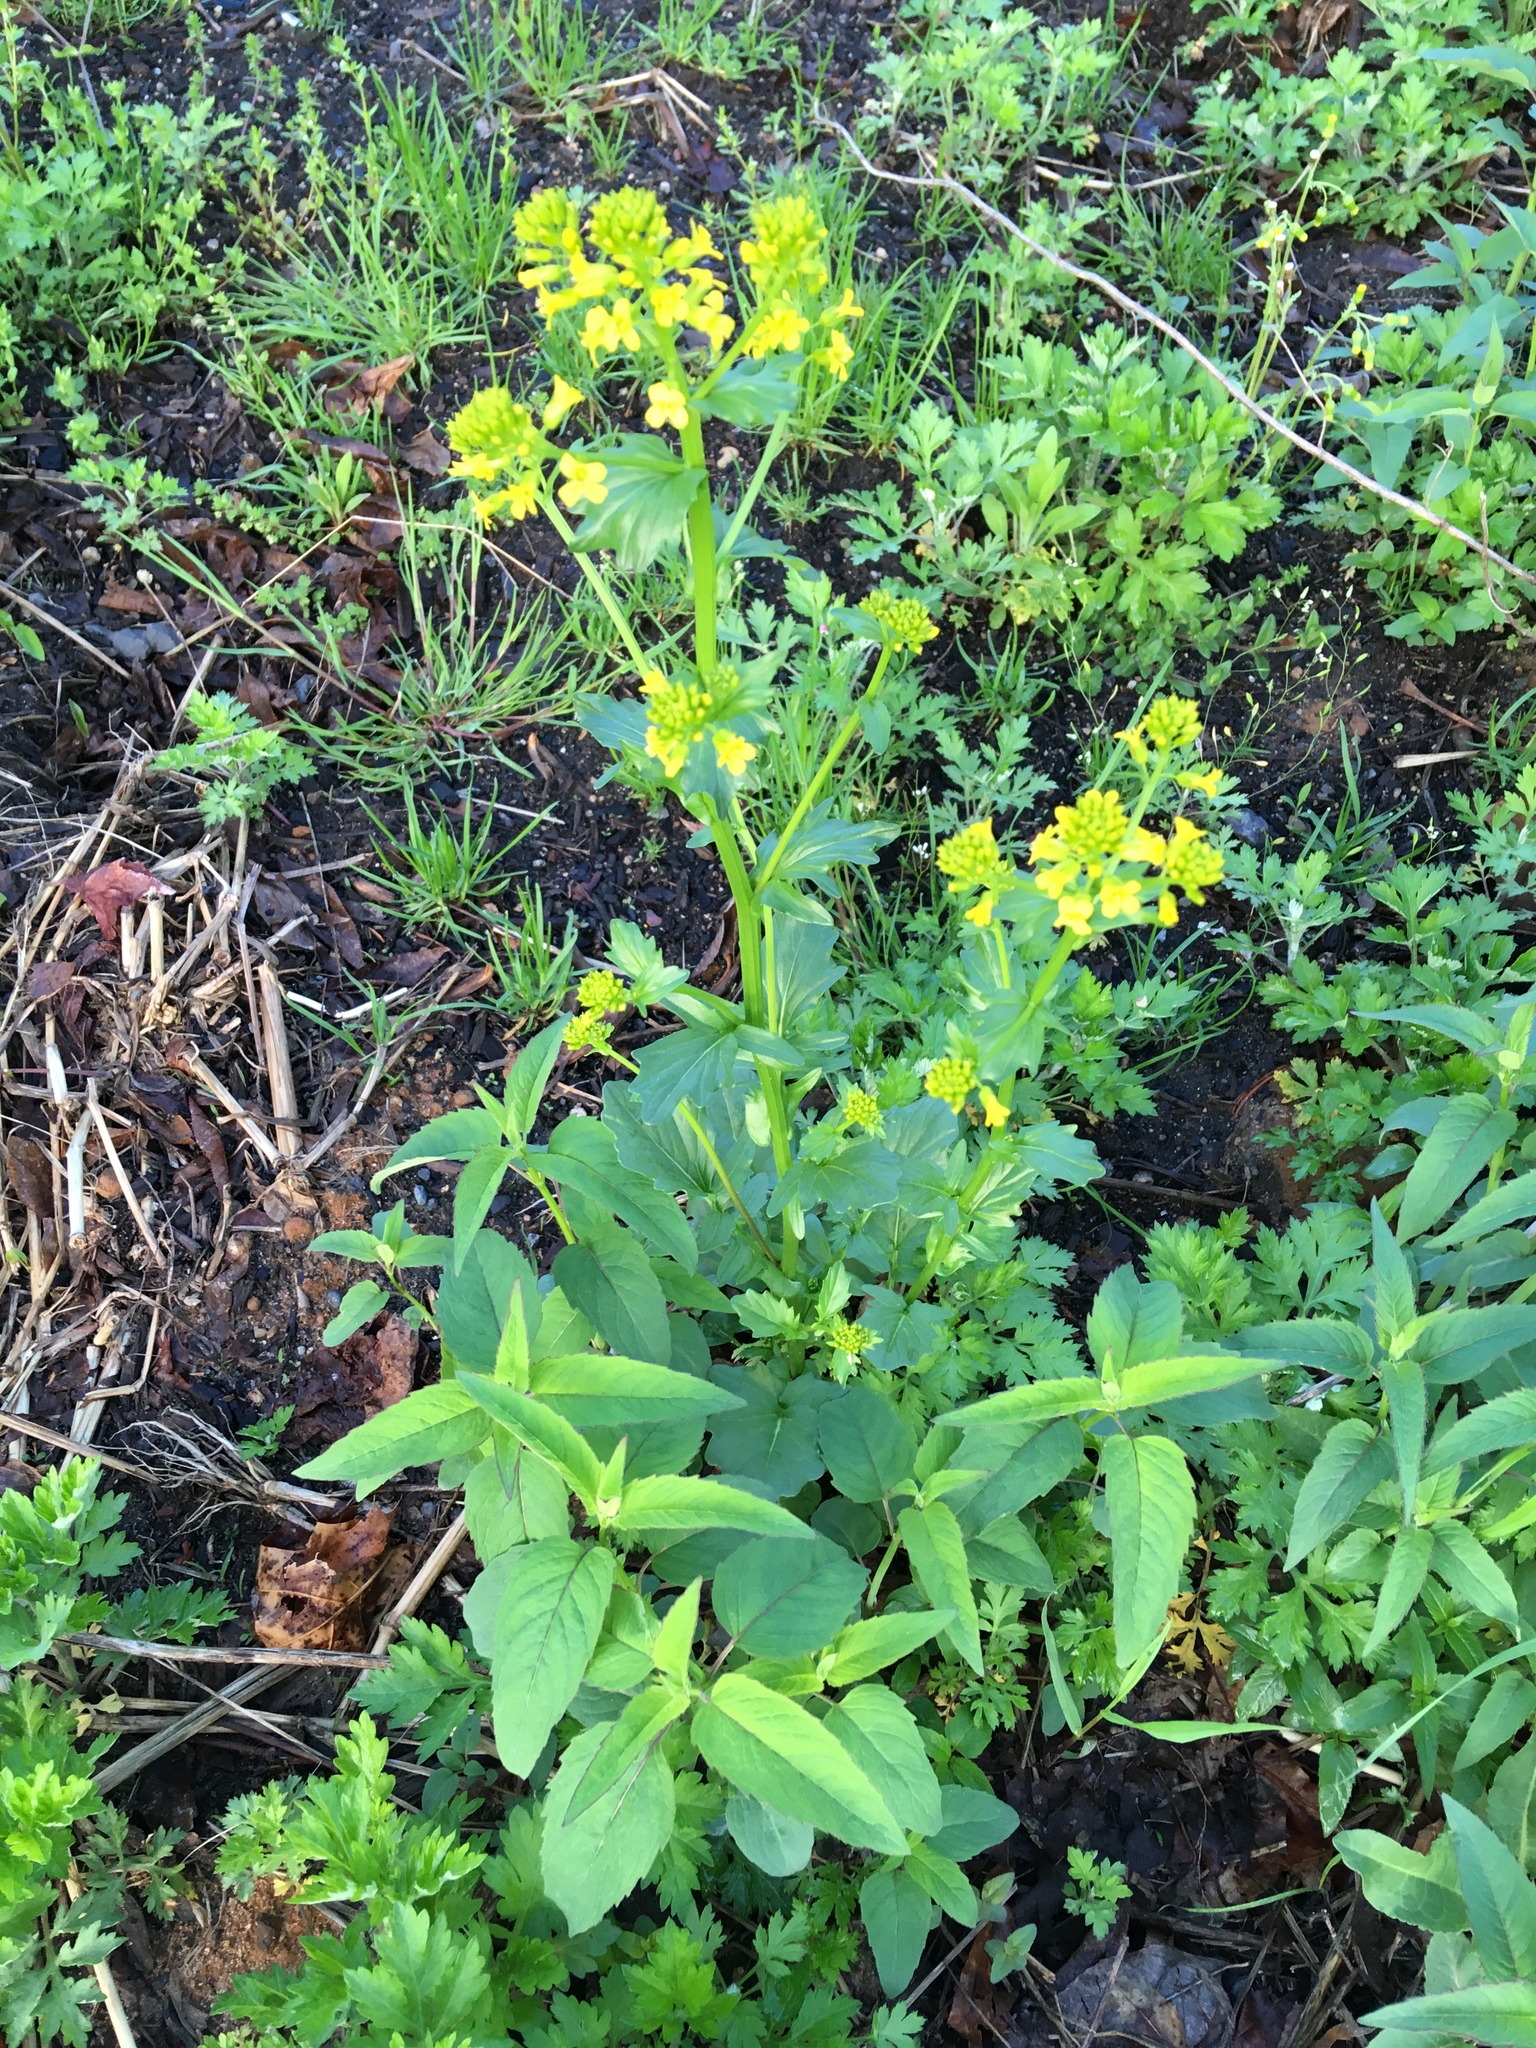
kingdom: Plantae
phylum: Tracheophyta
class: Magnoliopsida
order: Brassicales
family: Brassicaceae
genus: Barbarea
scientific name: Barbarea vulgaris
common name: Cressy-greens
